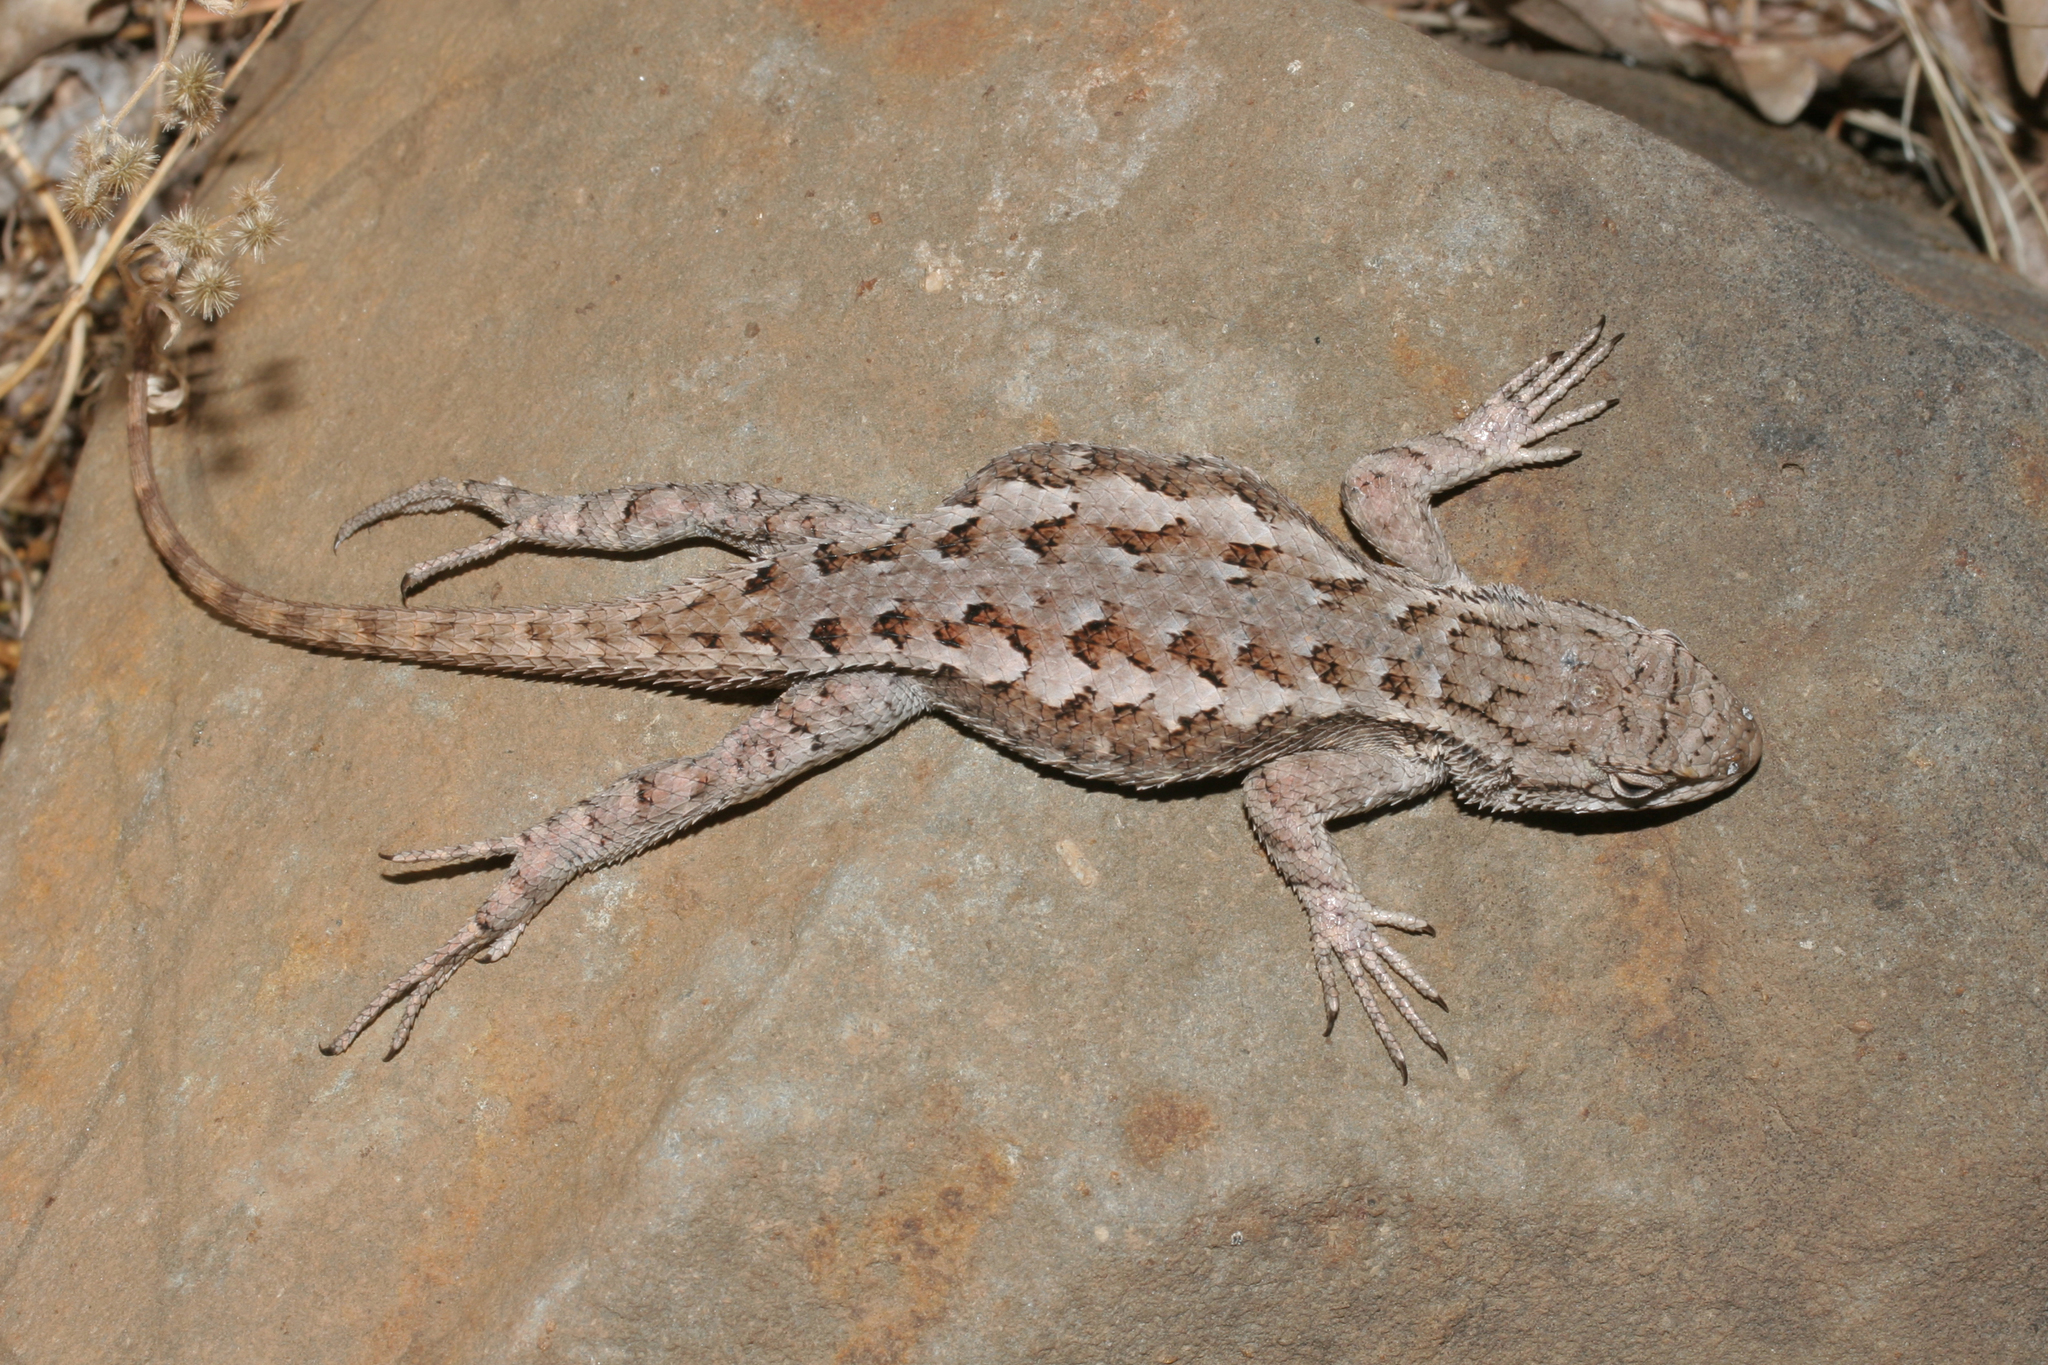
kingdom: Animalia
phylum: Chordata
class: Squamata
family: Phrynosomatidae
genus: Sceloporus
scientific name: Sceloporus occidentalis
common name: Western fence lizard
